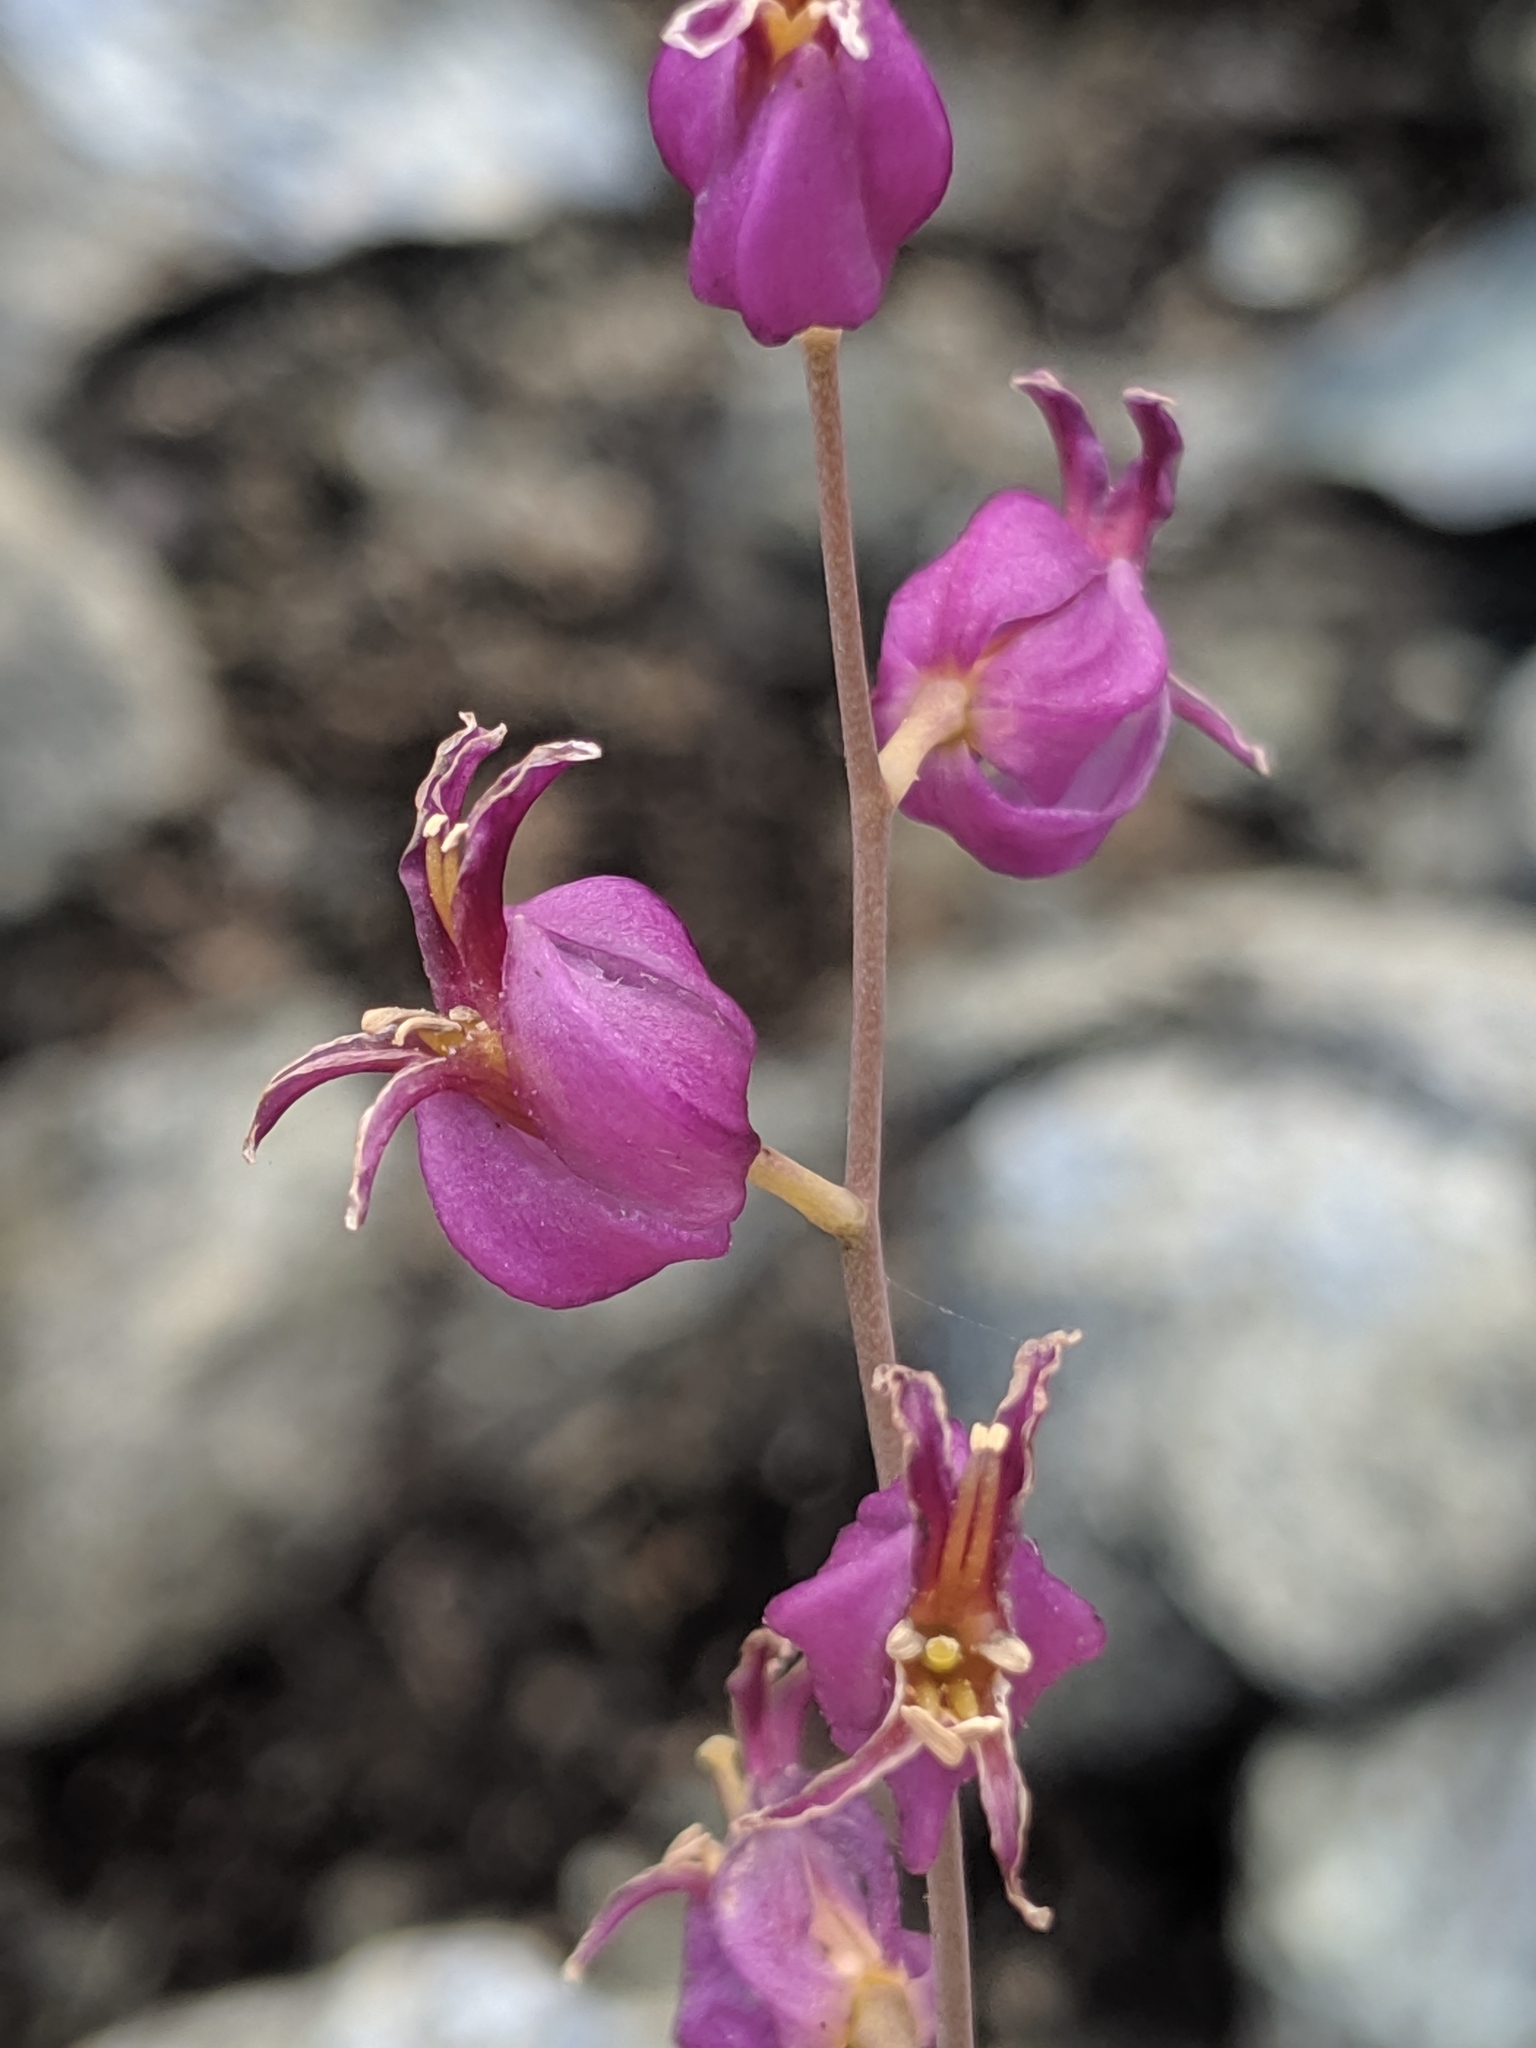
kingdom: Plantae
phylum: Tracheophyta
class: Magnoliopsida
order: Brassicales
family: Brassicaceae
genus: Streptanthus
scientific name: Streptanthus glandulosus
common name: Jewel-flower
